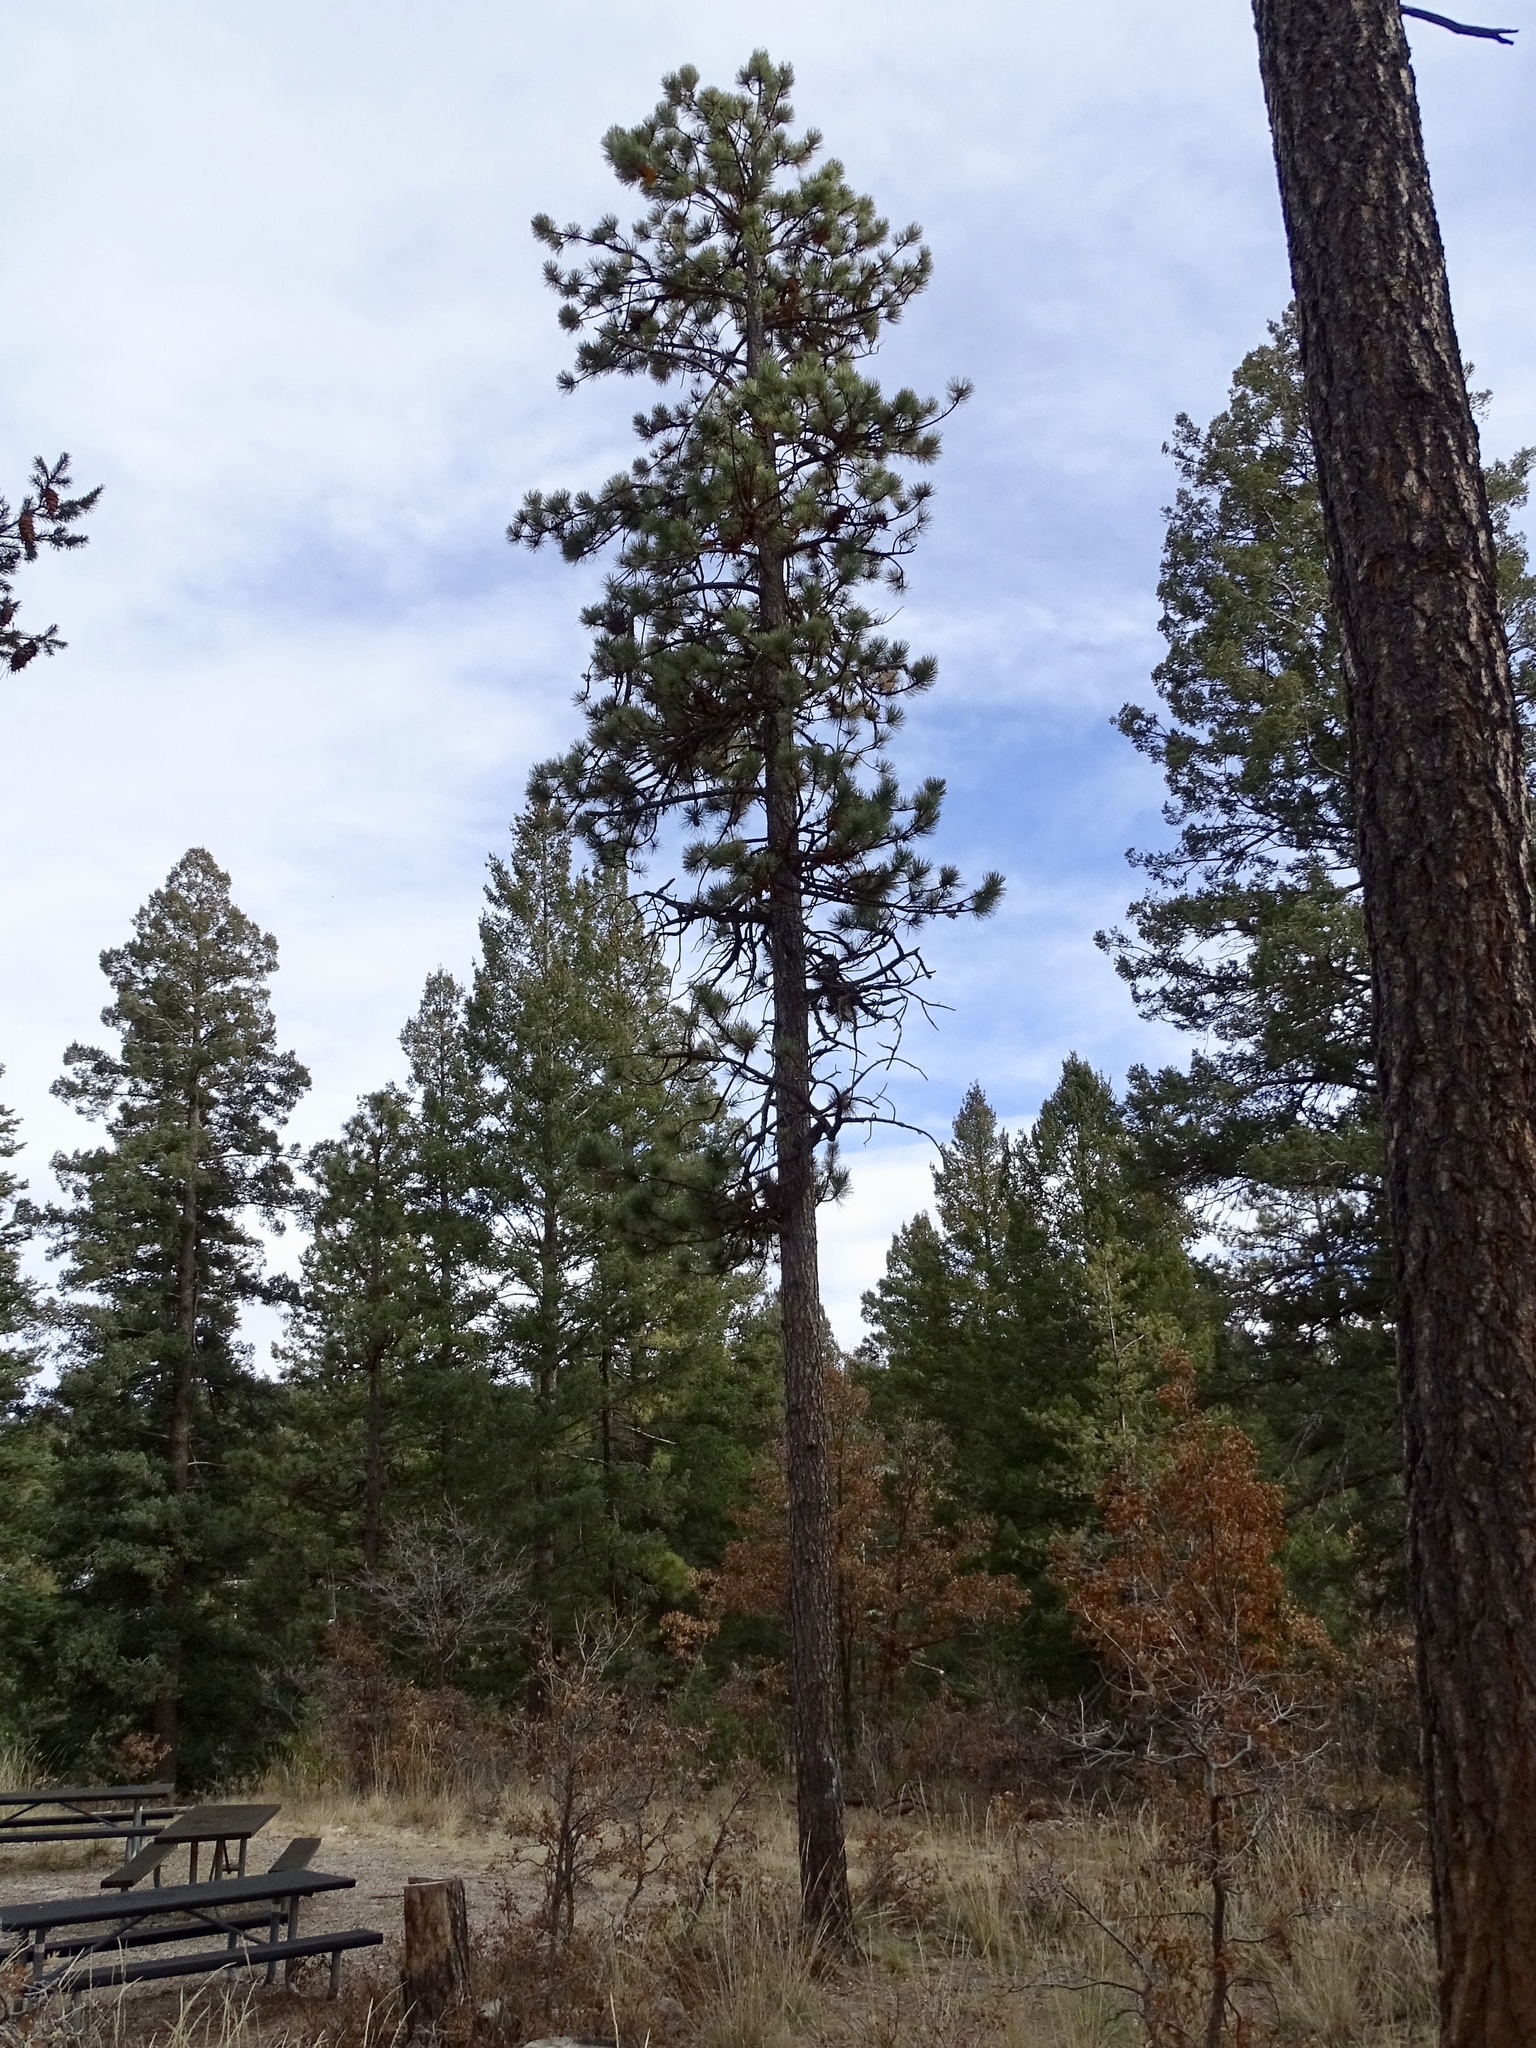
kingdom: Plantae
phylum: Tracheophyta
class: Pinopsida
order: Pinales
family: Pinaceae
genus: Pinus
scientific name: Pinus ponderosa
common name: Western yellow-pine
